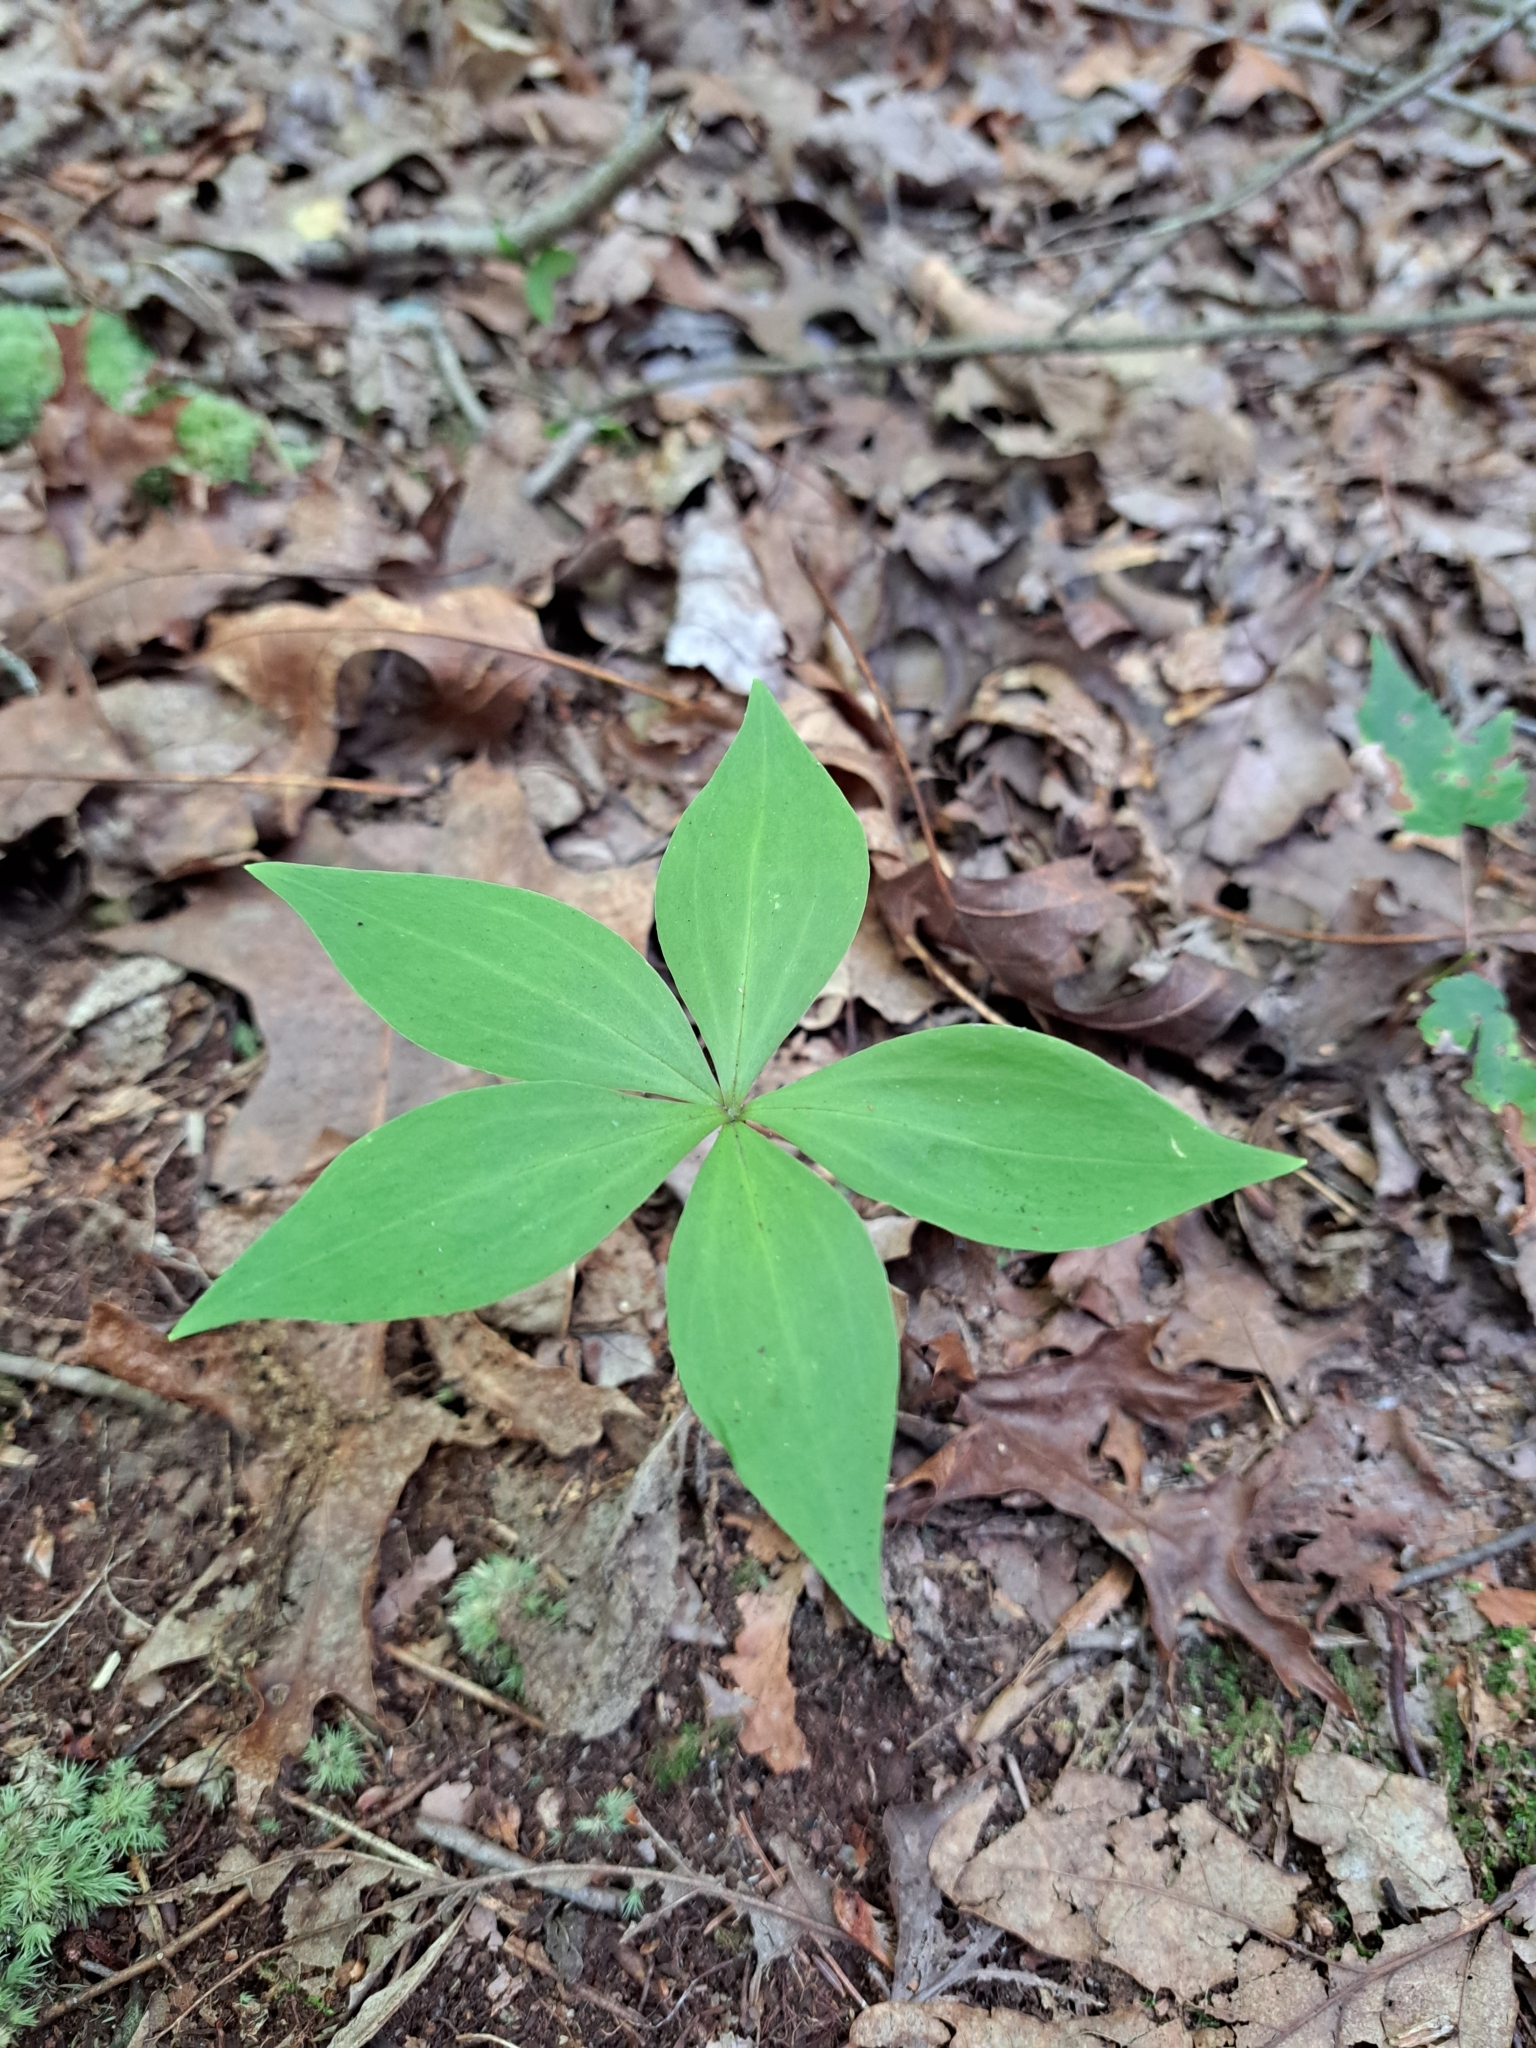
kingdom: Plantae
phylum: Tracheophyta
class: Liliopsida
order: Liliales
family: Liliaceae
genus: Medeola
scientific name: Medeola virginiana
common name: Indian cucumber-root
